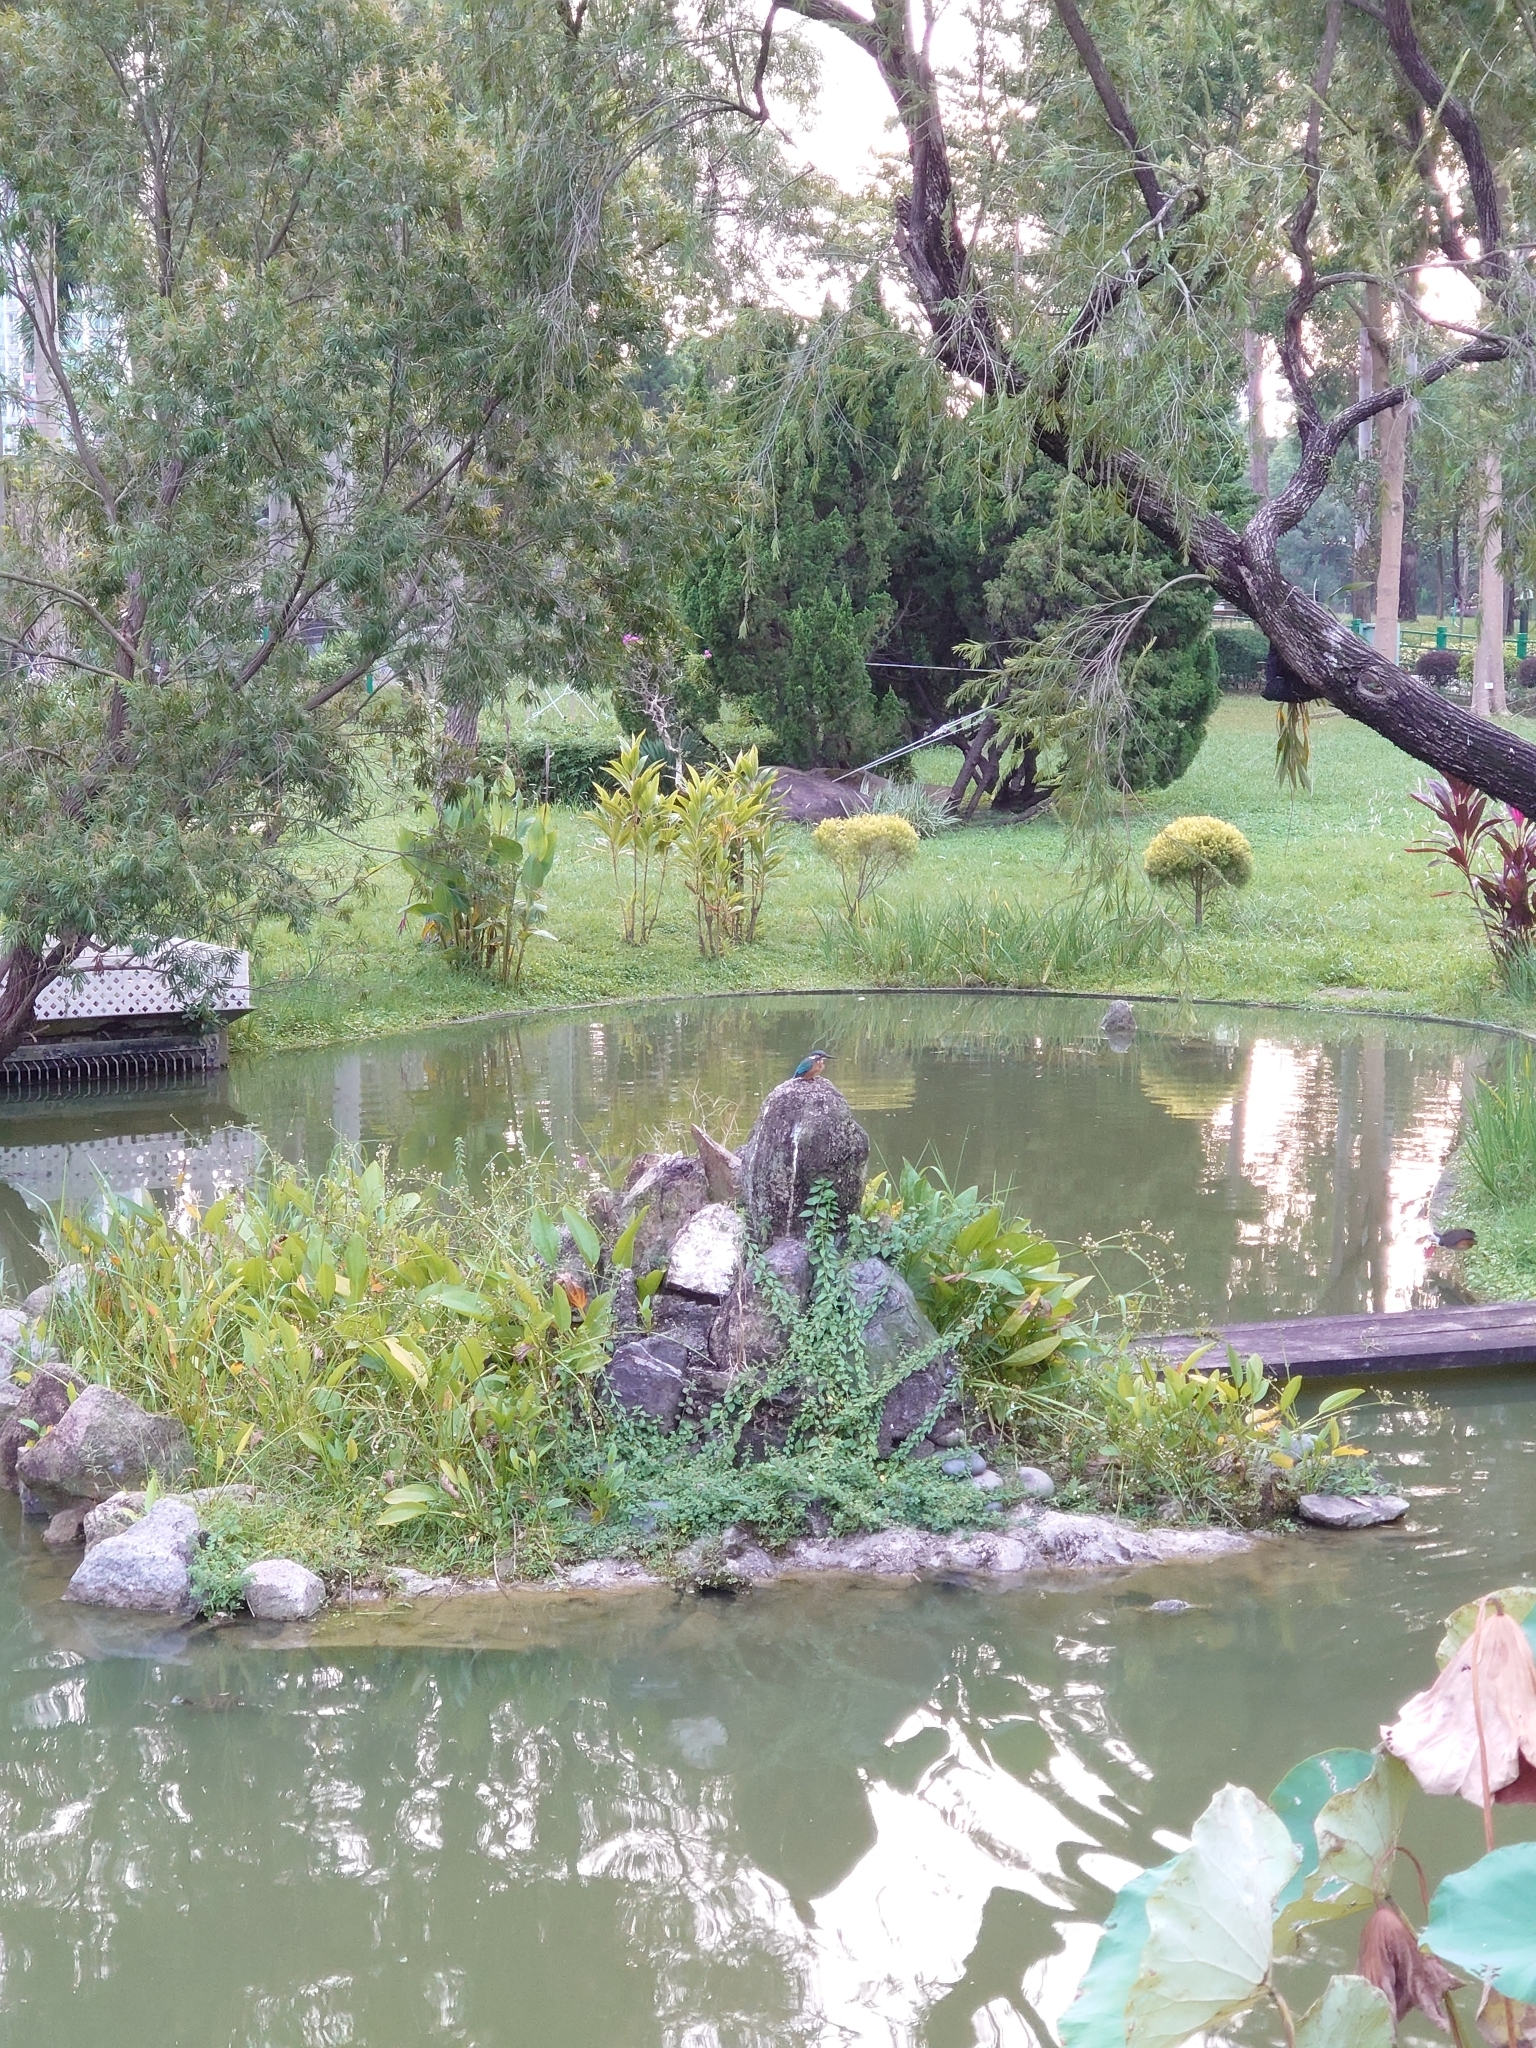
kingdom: Animalia
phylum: Chordata
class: Aves
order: Coraciiformes
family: Alcedinidae
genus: Alcedo
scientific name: Alcedo atthis
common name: Common kingfisher
